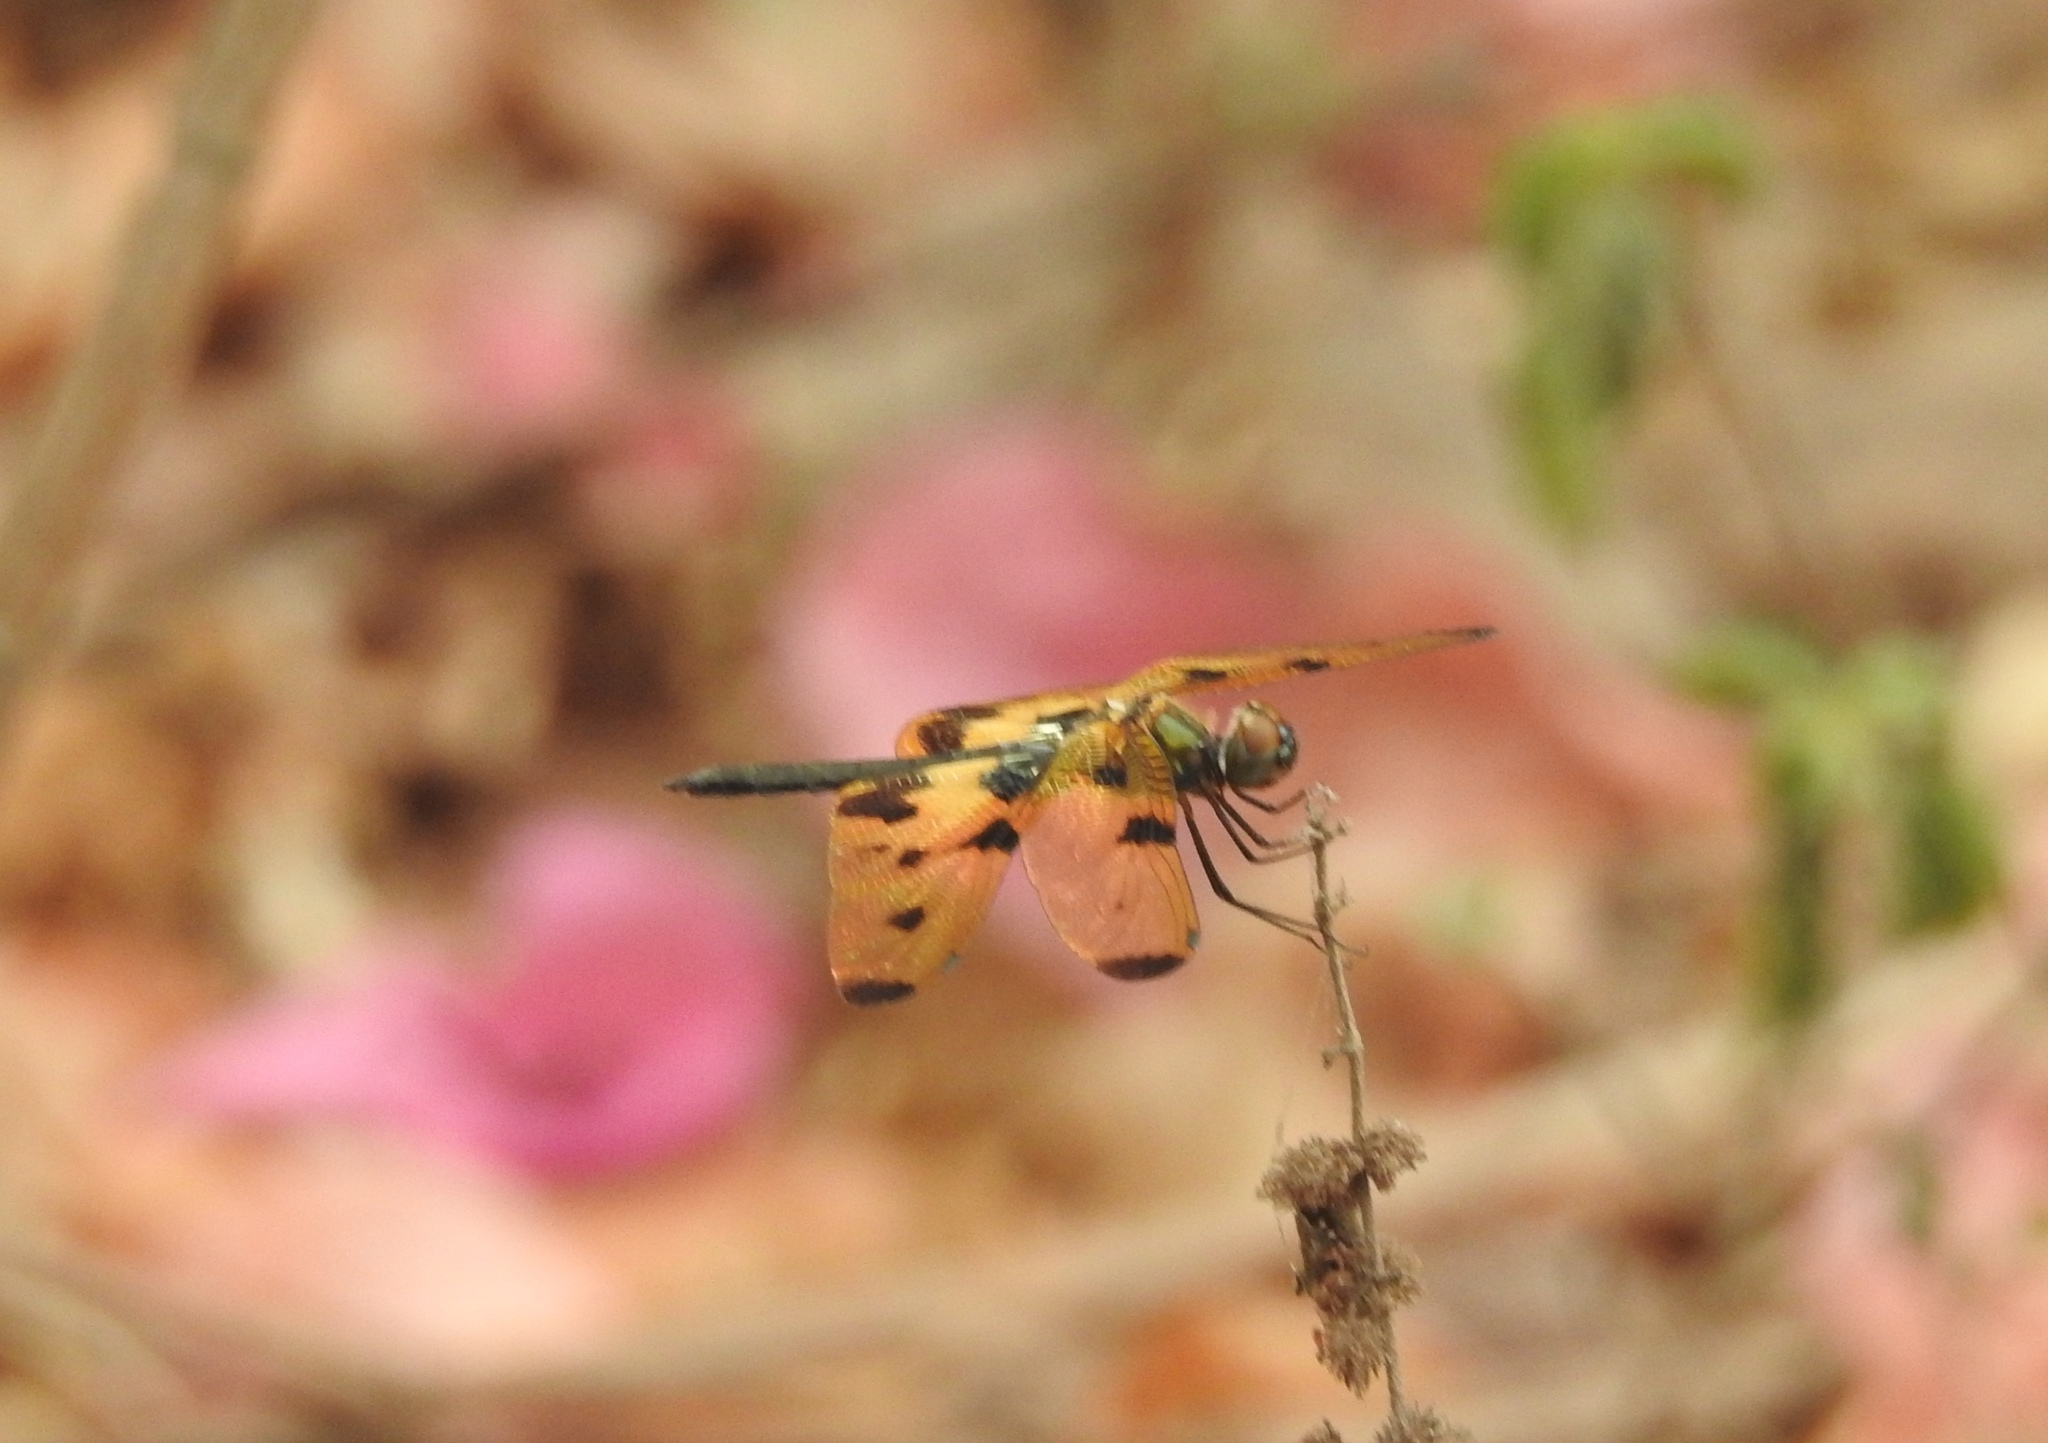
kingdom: Animalia
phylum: Arthropoda
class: Insecta
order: Odonata
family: Libellulidae
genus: Rhyothemis
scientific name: Rhyothemis variegata
